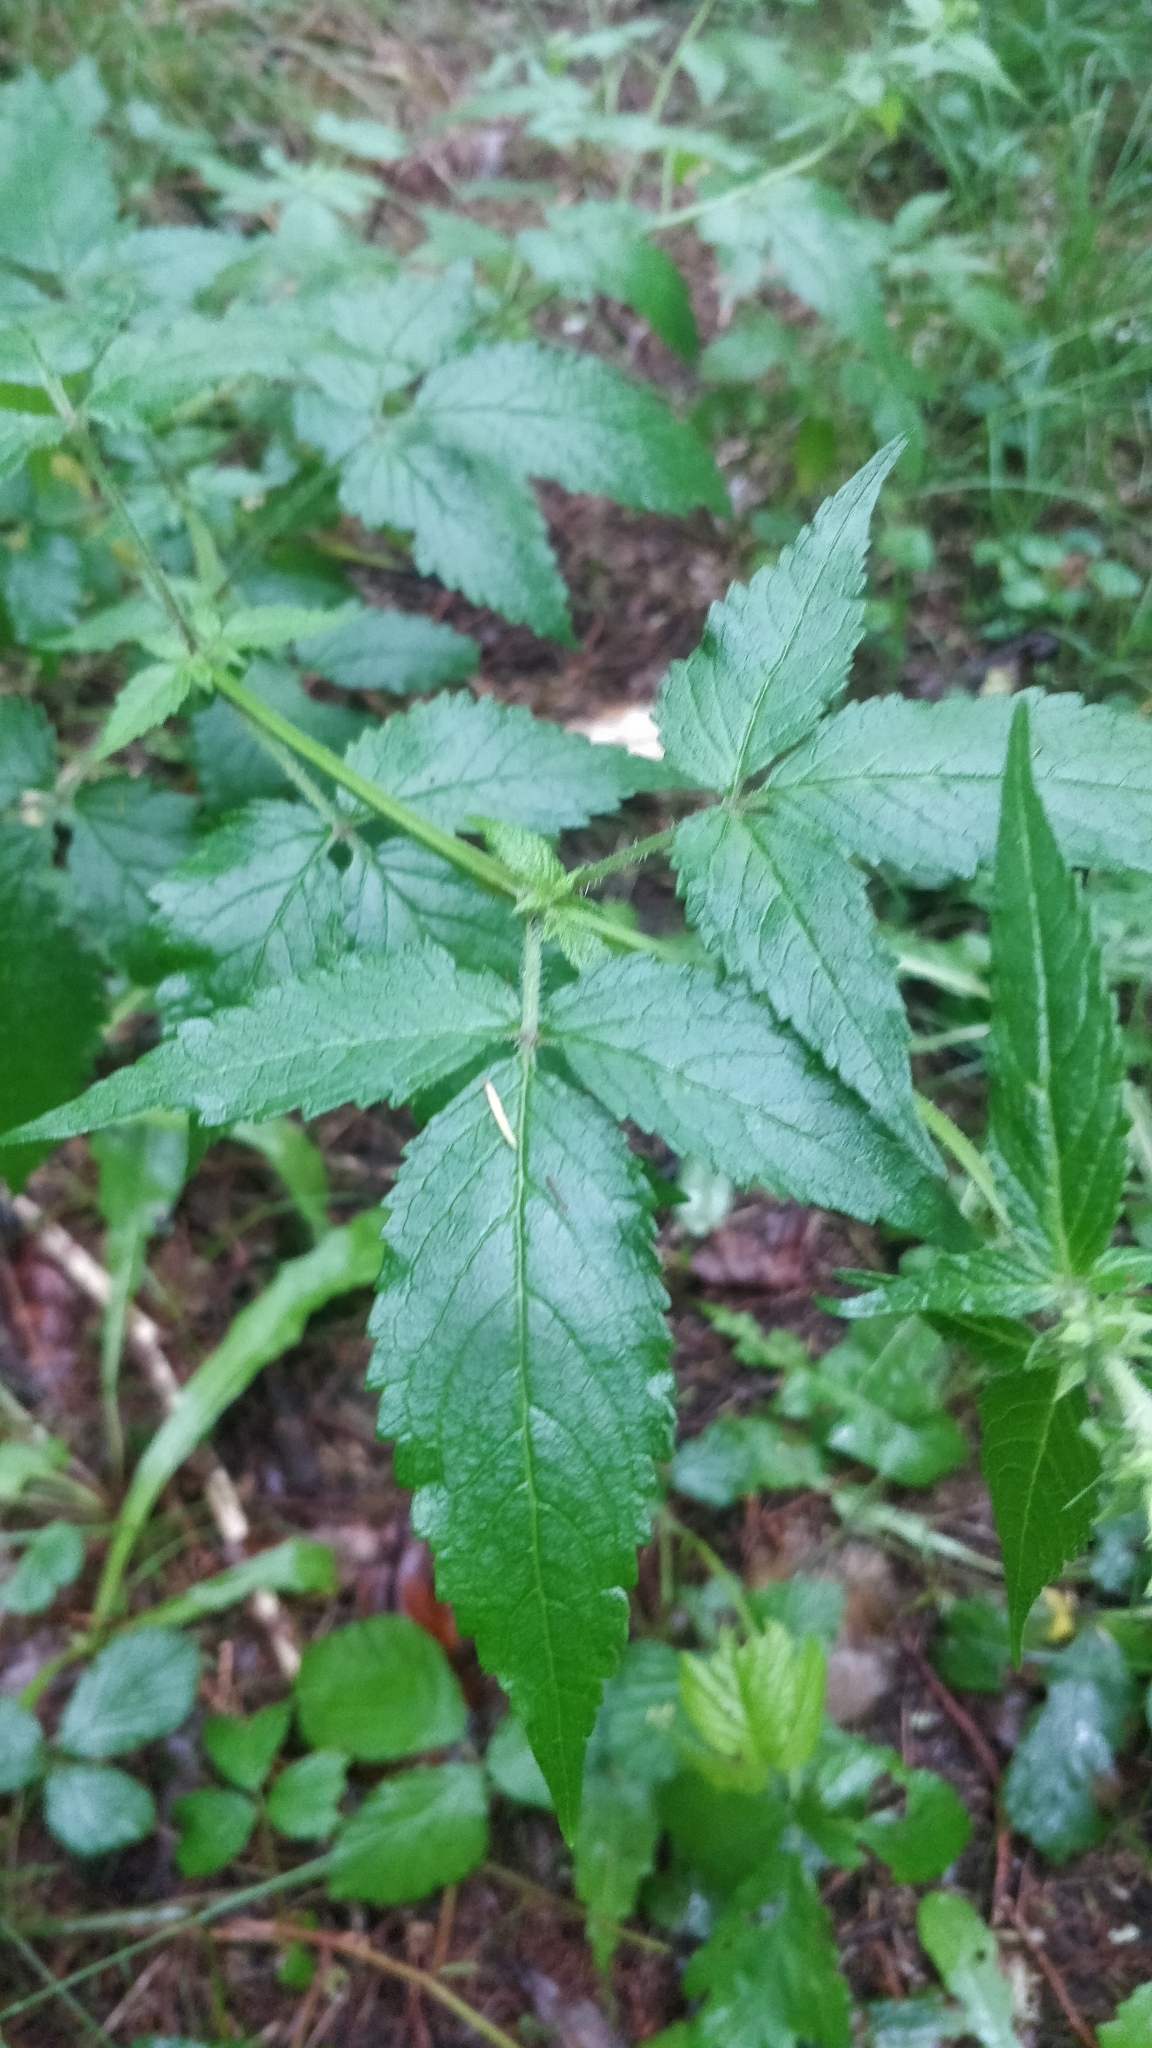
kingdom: Plantae
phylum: Tracheophyta
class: Magnoliopsida
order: Lamiales
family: Lamiaceae
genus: Cedronella
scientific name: Cedronella canariensis
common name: Canary islands balm
